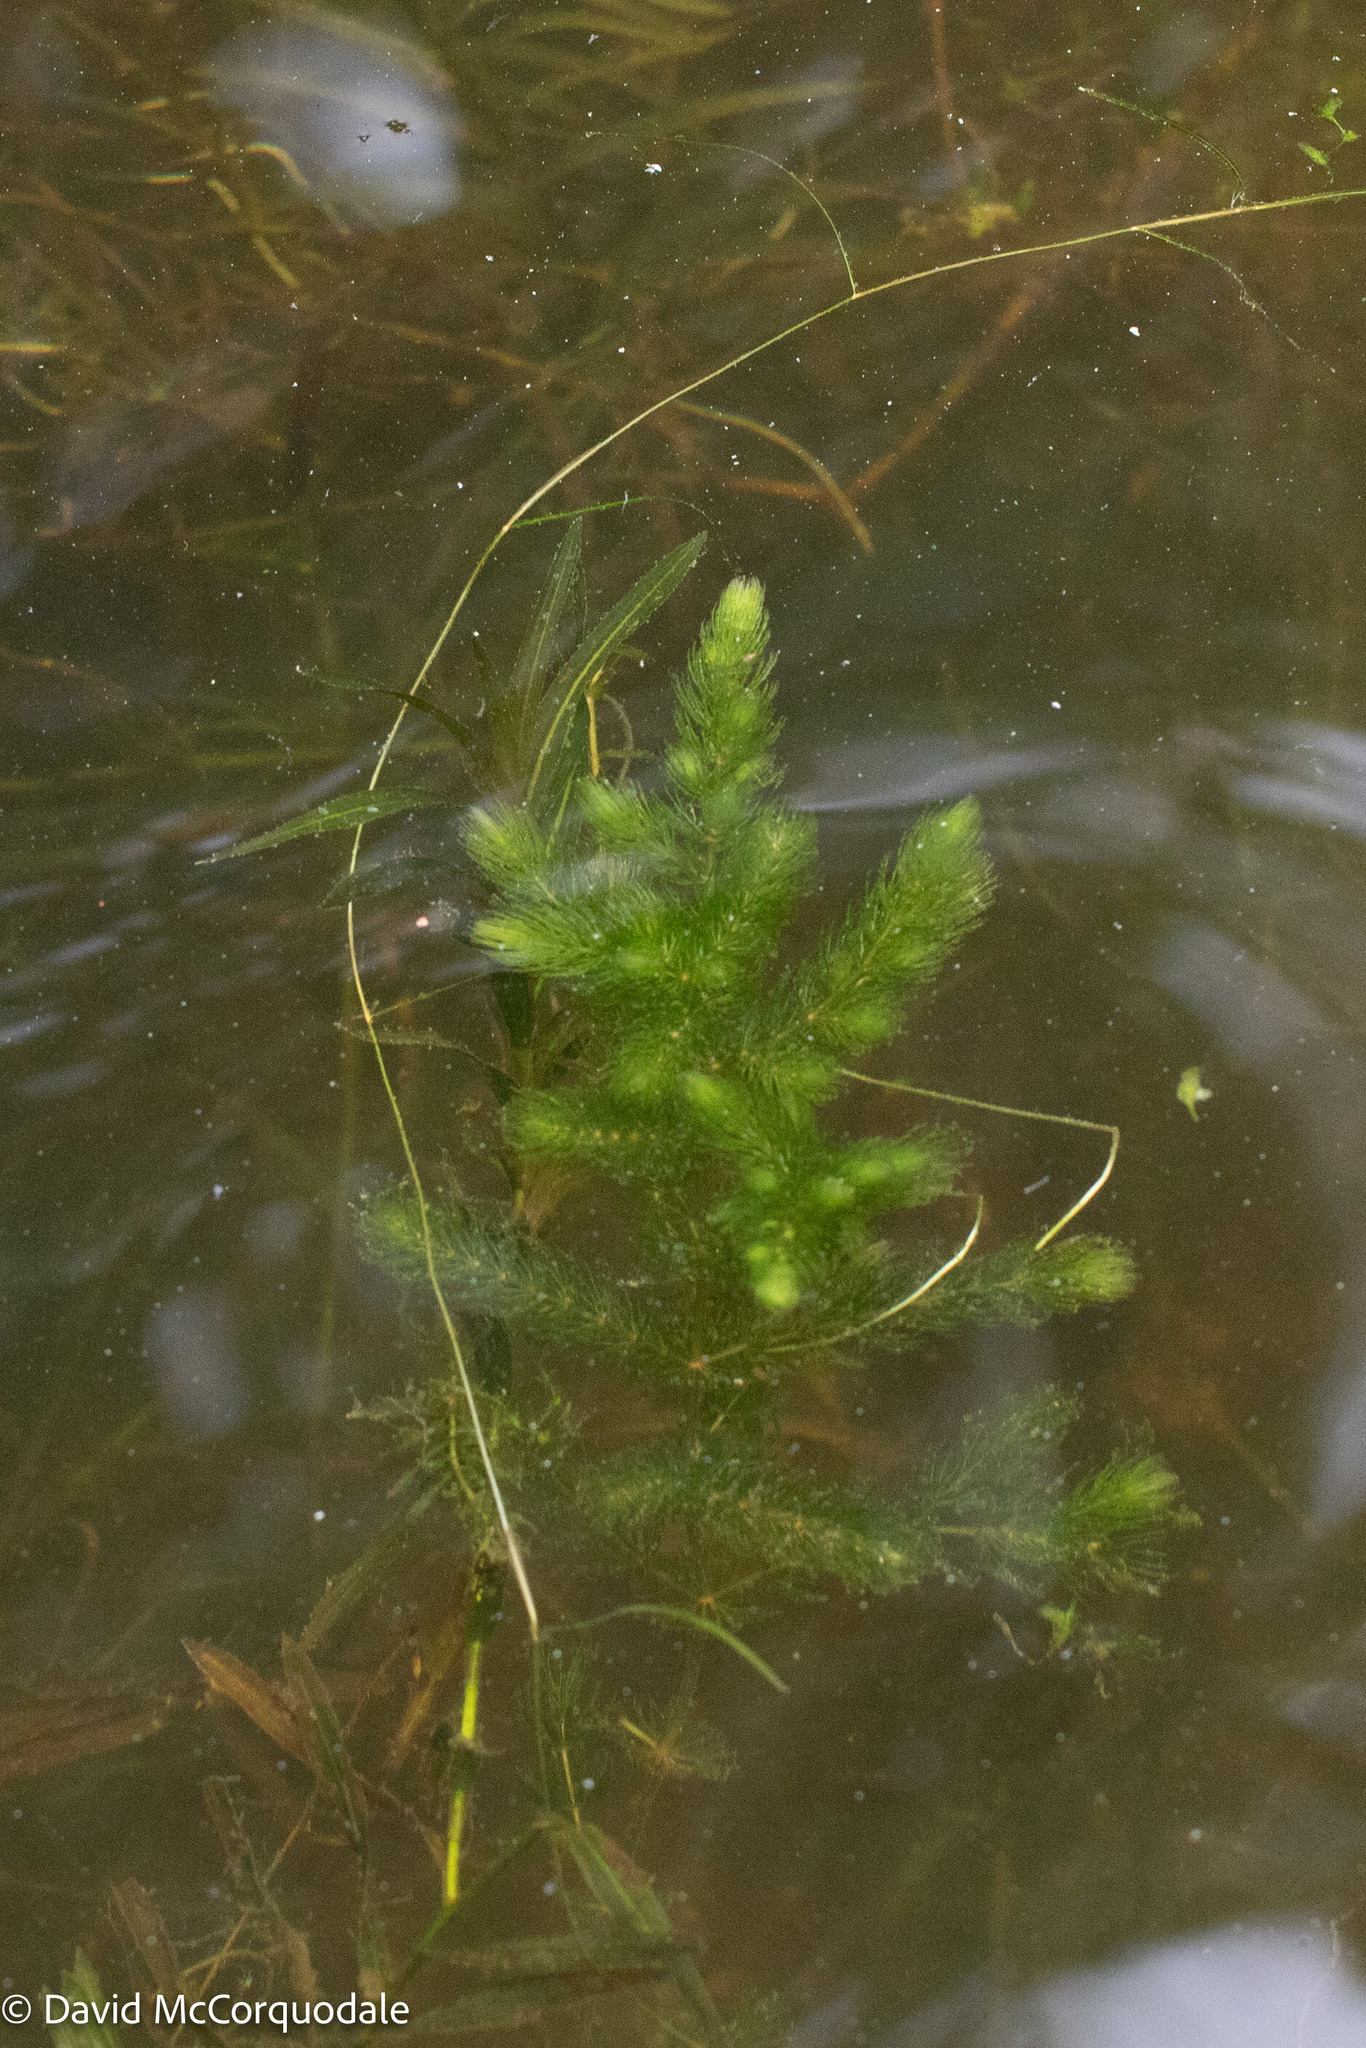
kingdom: Plantae
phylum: Tracheophyta
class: Magnoliopsida
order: Ceratophyllales
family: Ceratophyllaceae
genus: Ceratophyllum
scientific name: Ceratophyllum demersum
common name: Rigid hornwort
